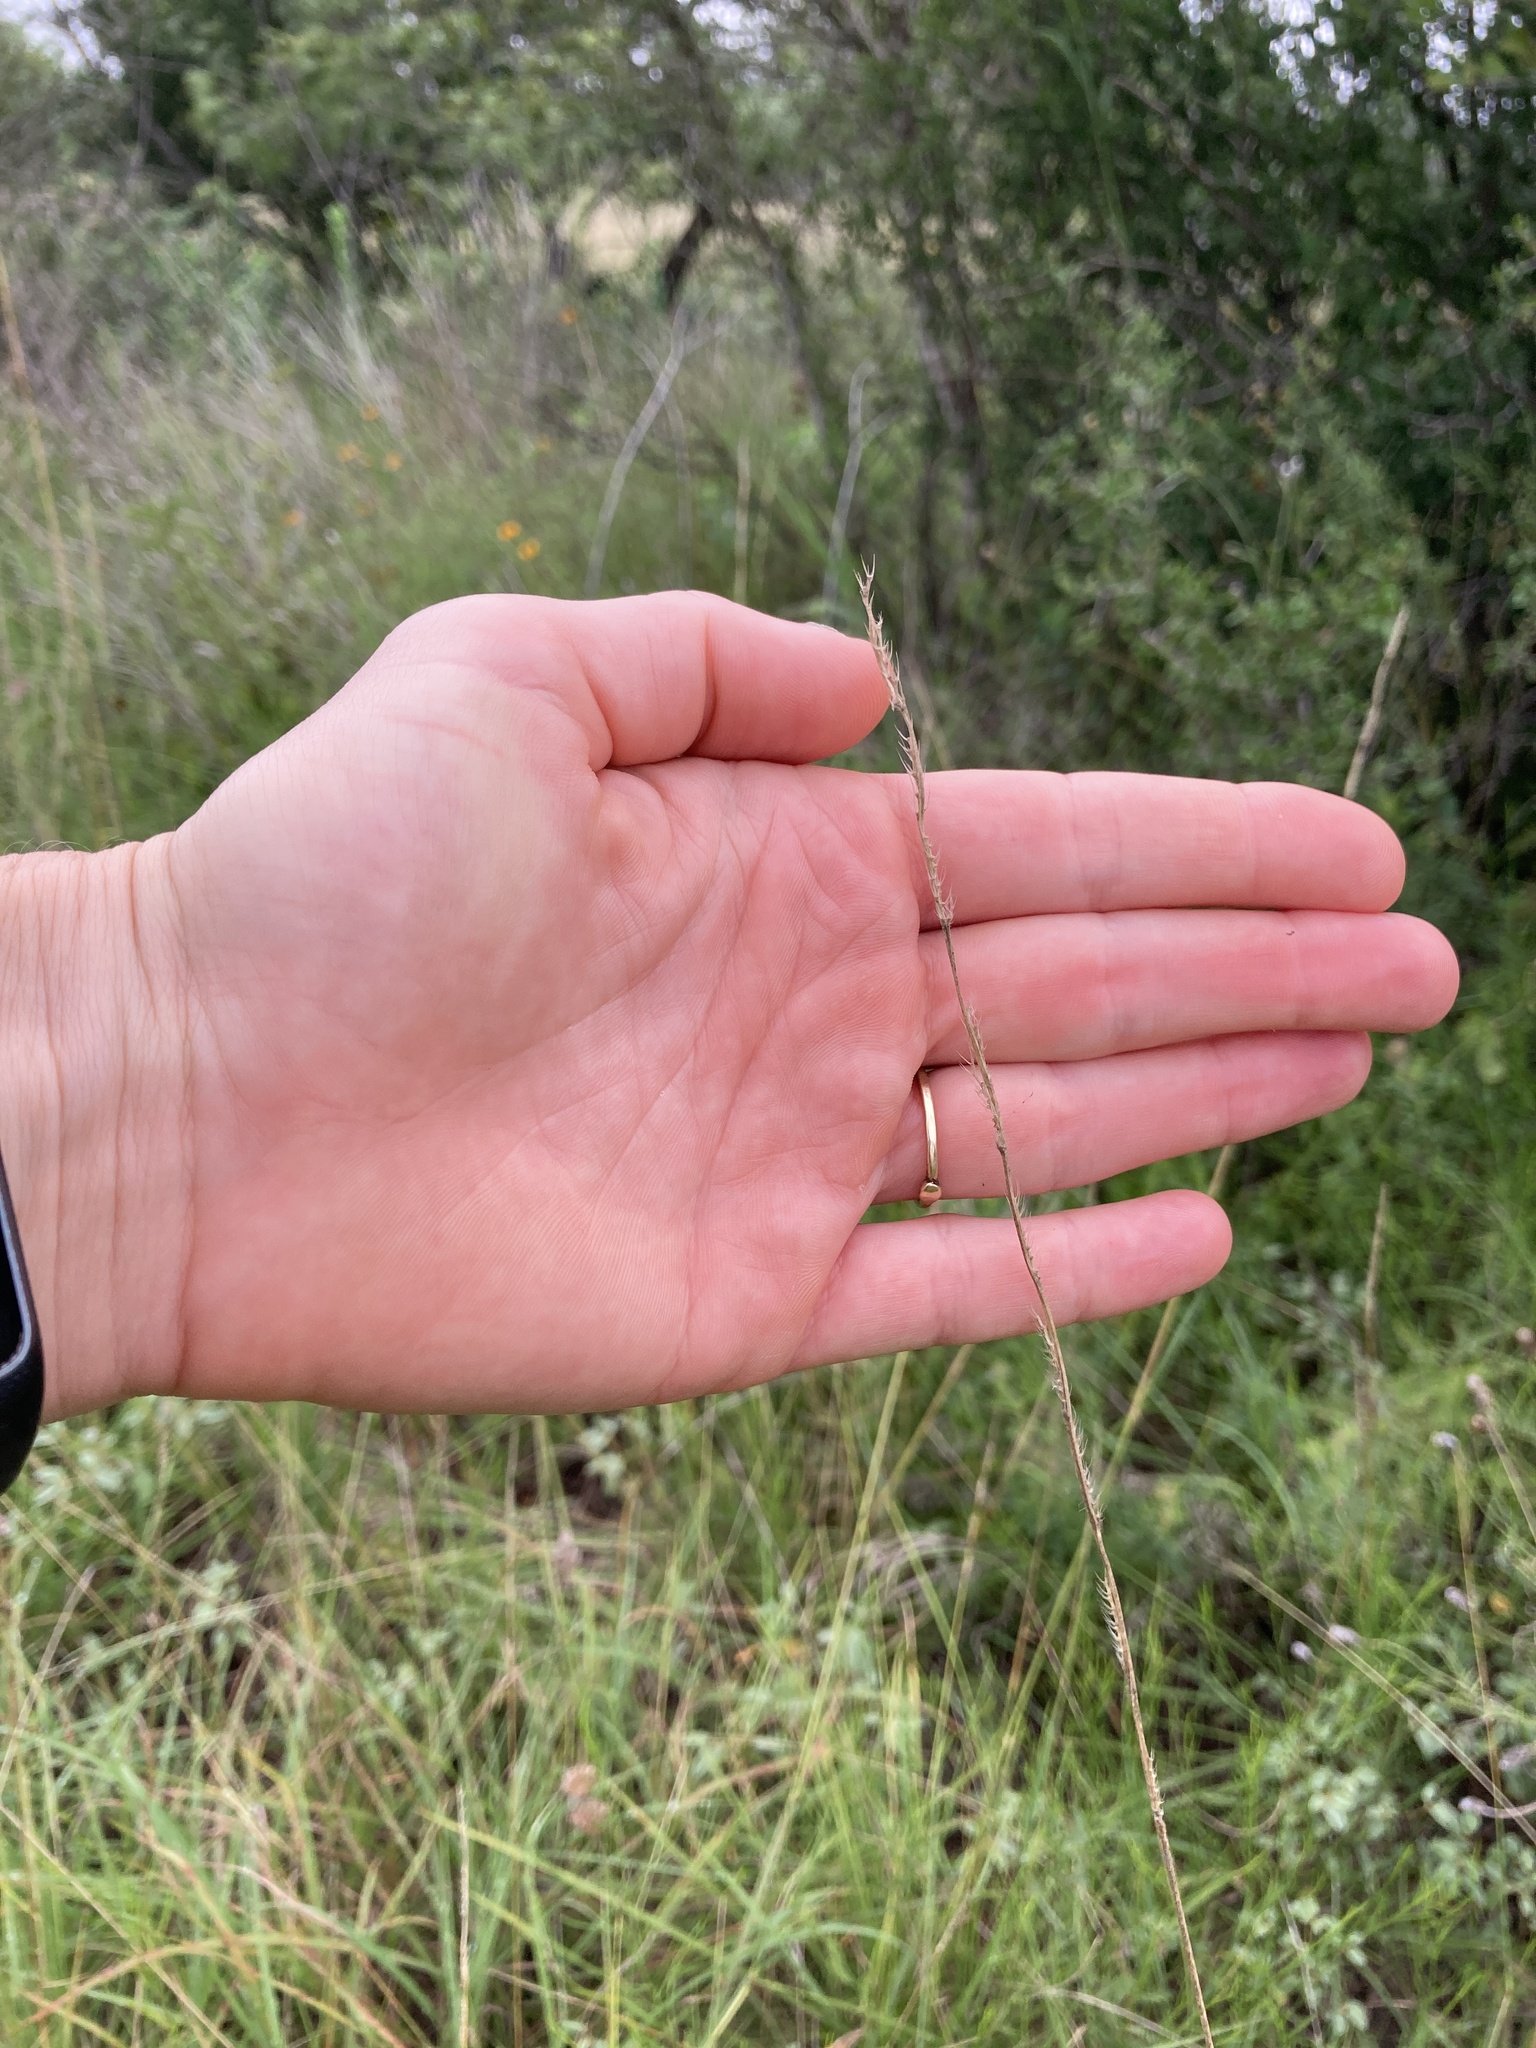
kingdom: Plantae
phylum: Tracheophyta
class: Liliopsida
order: Poales
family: Poaceae
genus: Eriochloa
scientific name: Eriochloa sericea
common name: Texas cup grass
